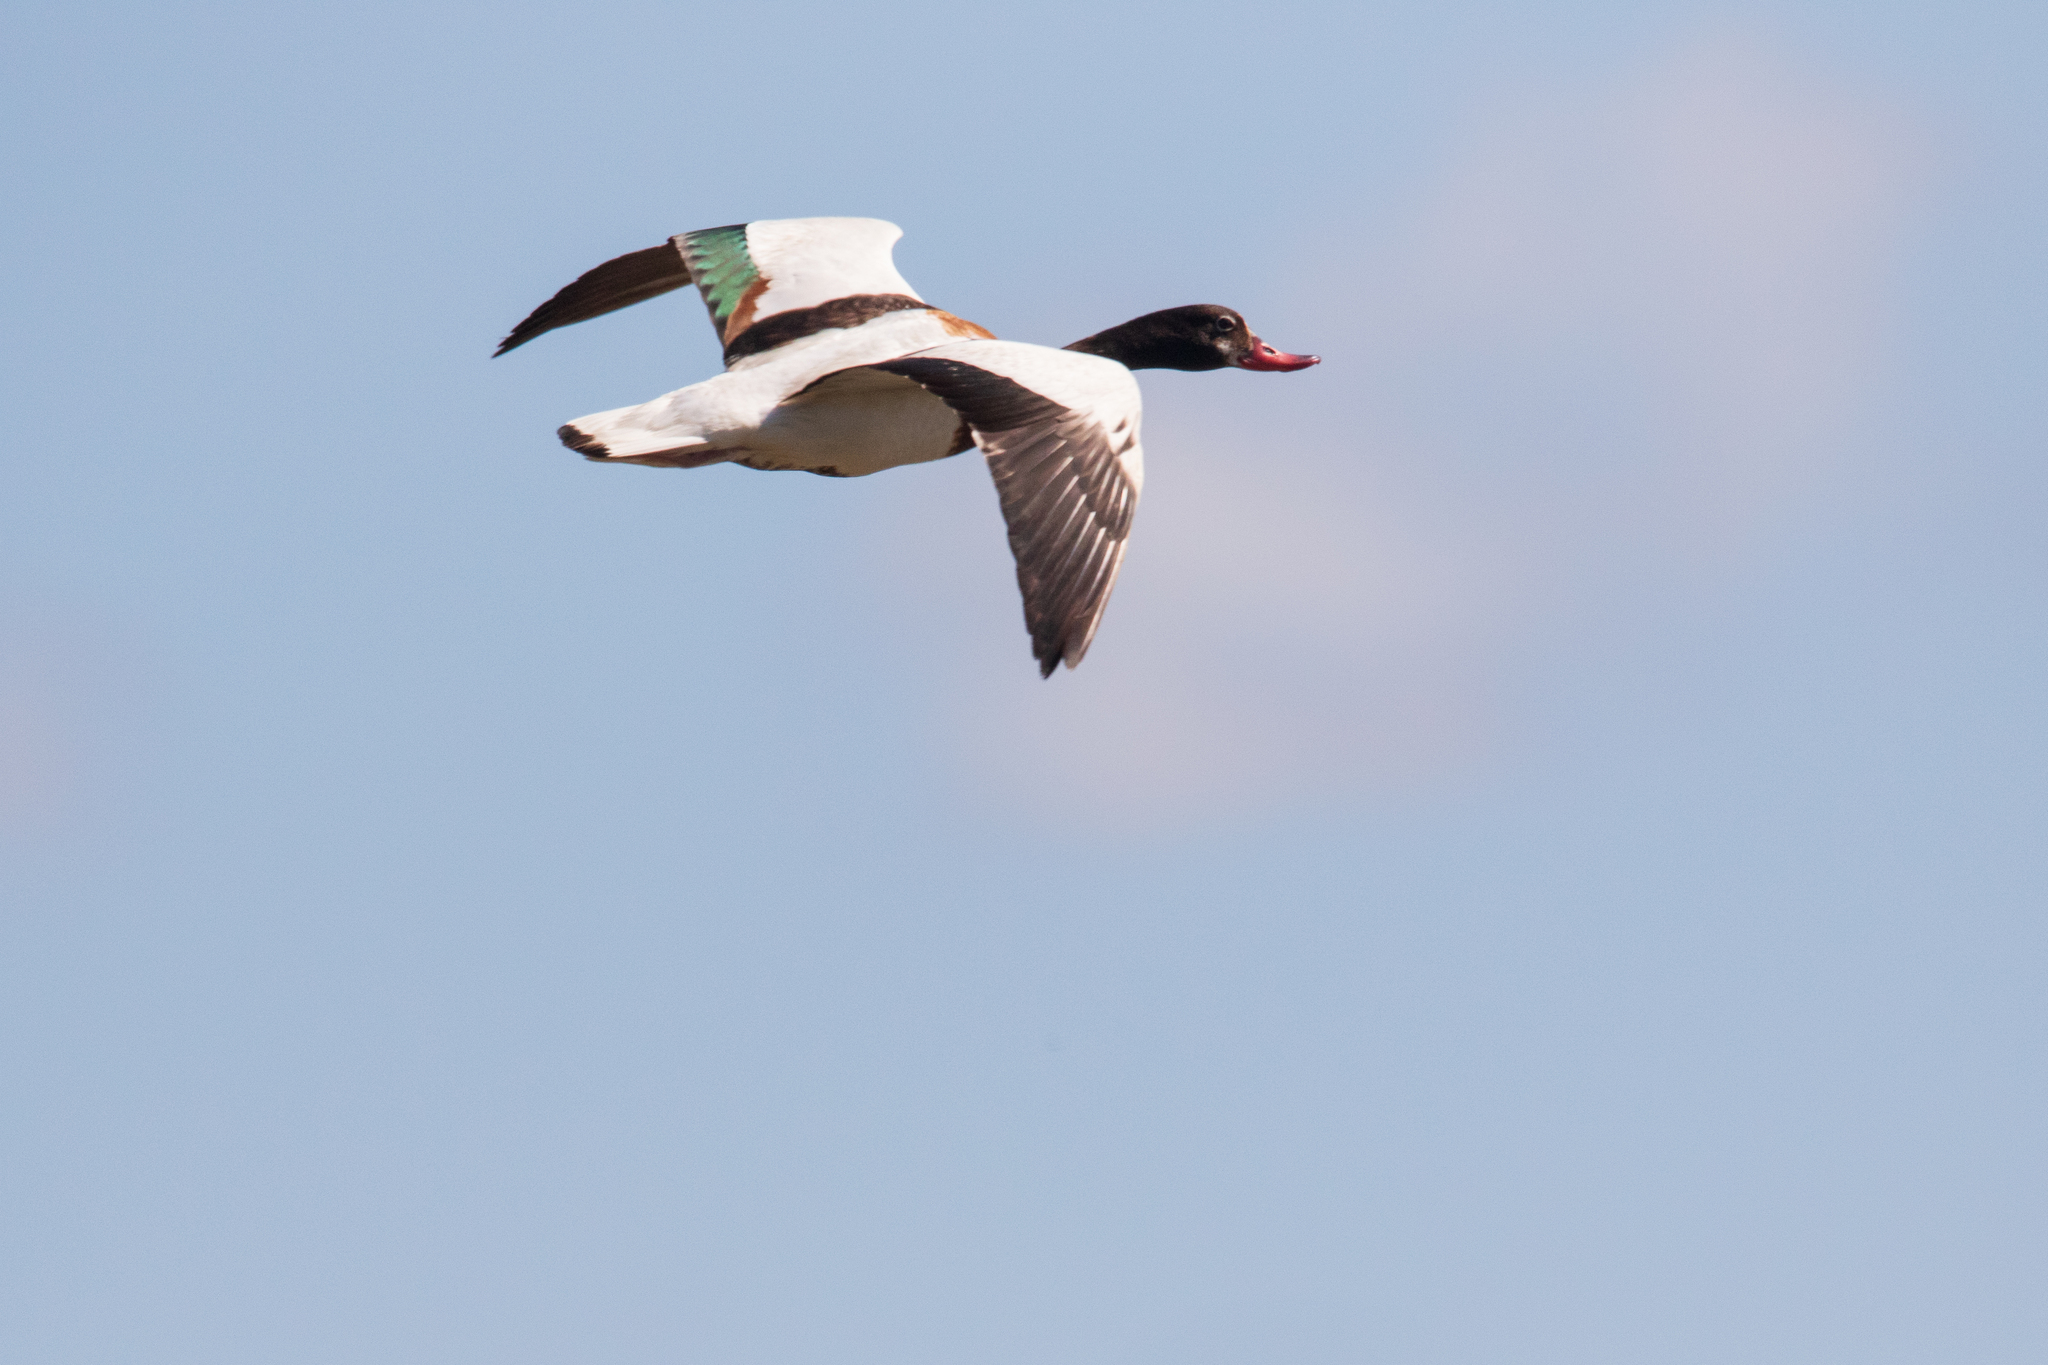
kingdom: Animalia
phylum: Chordata
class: Aves
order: Anseriformes
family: Anatidae
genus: Tadorna
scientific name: Tadorna tadorna
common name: Common shelduck
